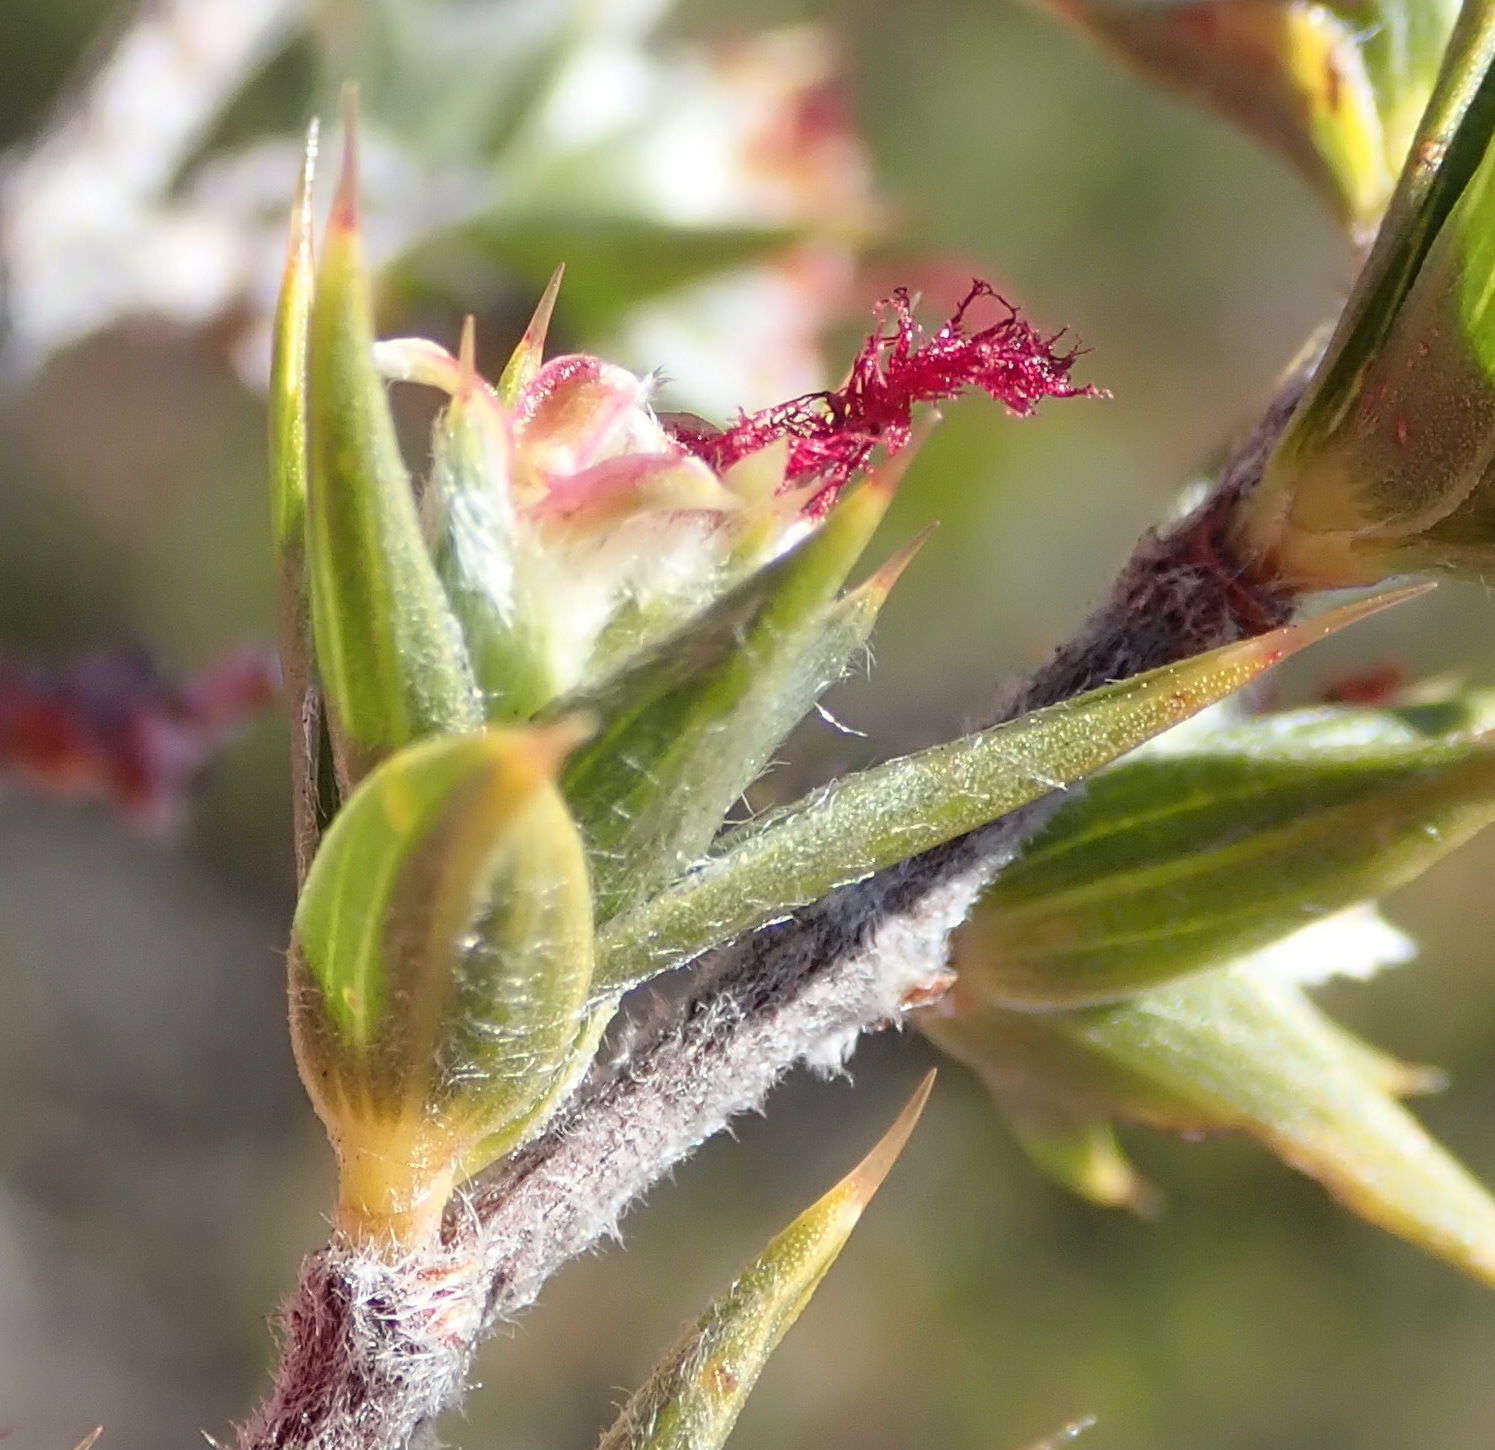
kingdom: Plantae
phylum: Tracheophyta
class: Magnoliopsida
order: Rosales
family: Rosaceae
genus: Cliffortia
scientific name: Cliffortia ruscifolia
